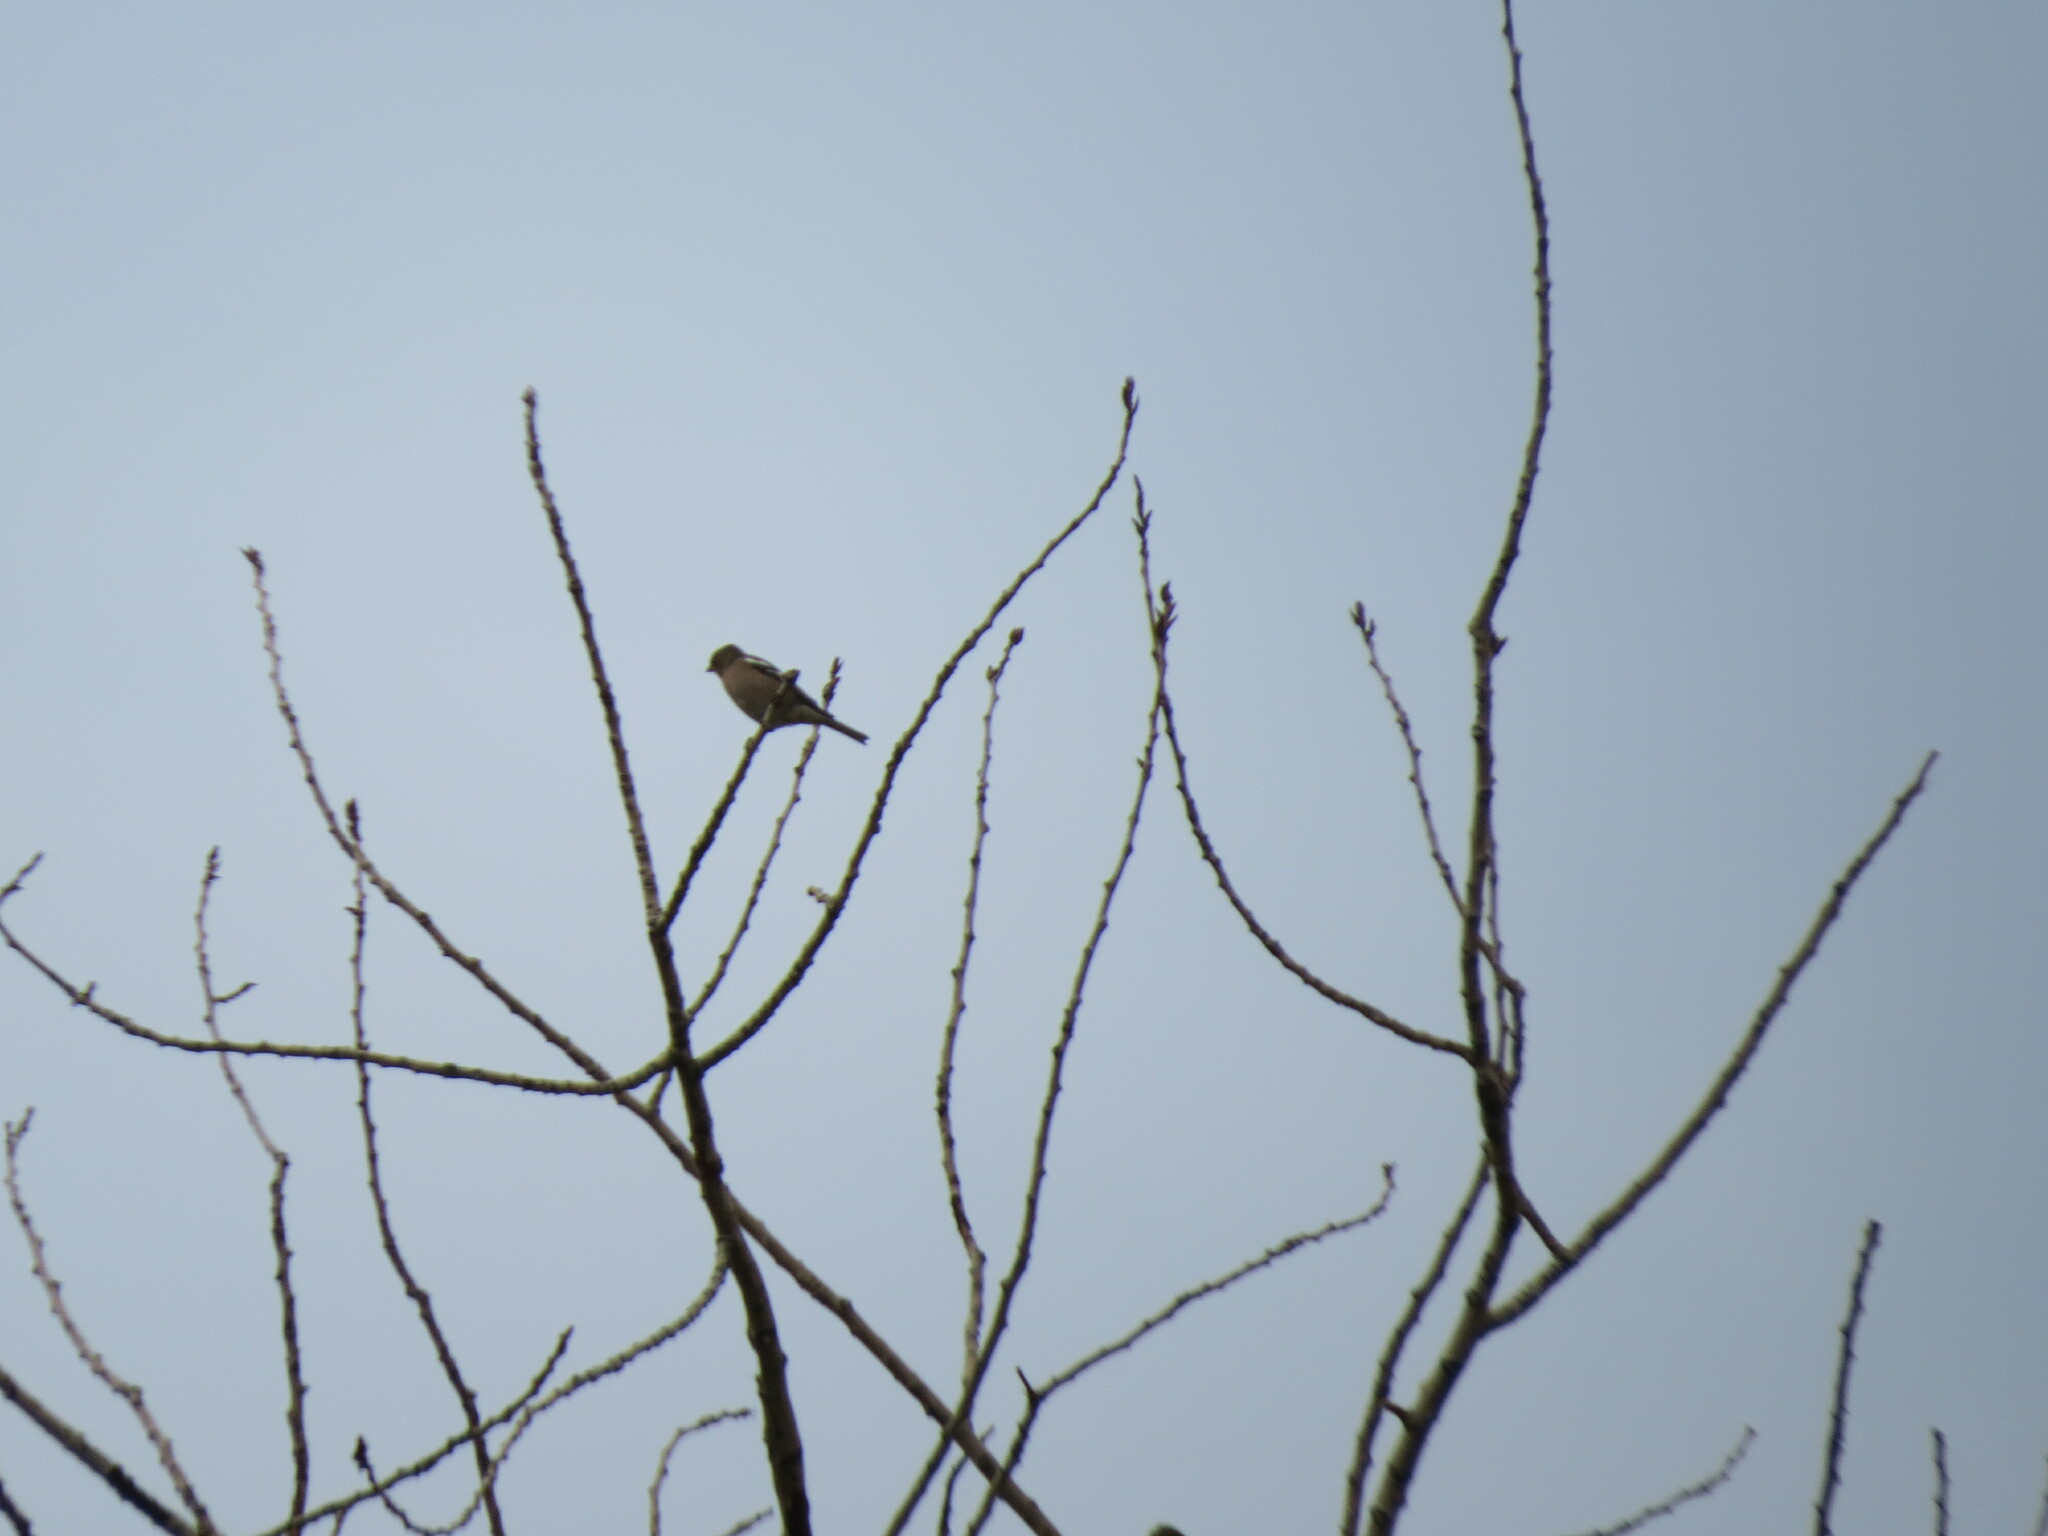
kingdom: Animalia
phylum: Chordata
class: Aves
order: Passeriformes
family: Fringillidae
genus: Fringilla
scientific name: Fringilla coelebs
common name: Common chaffinch
